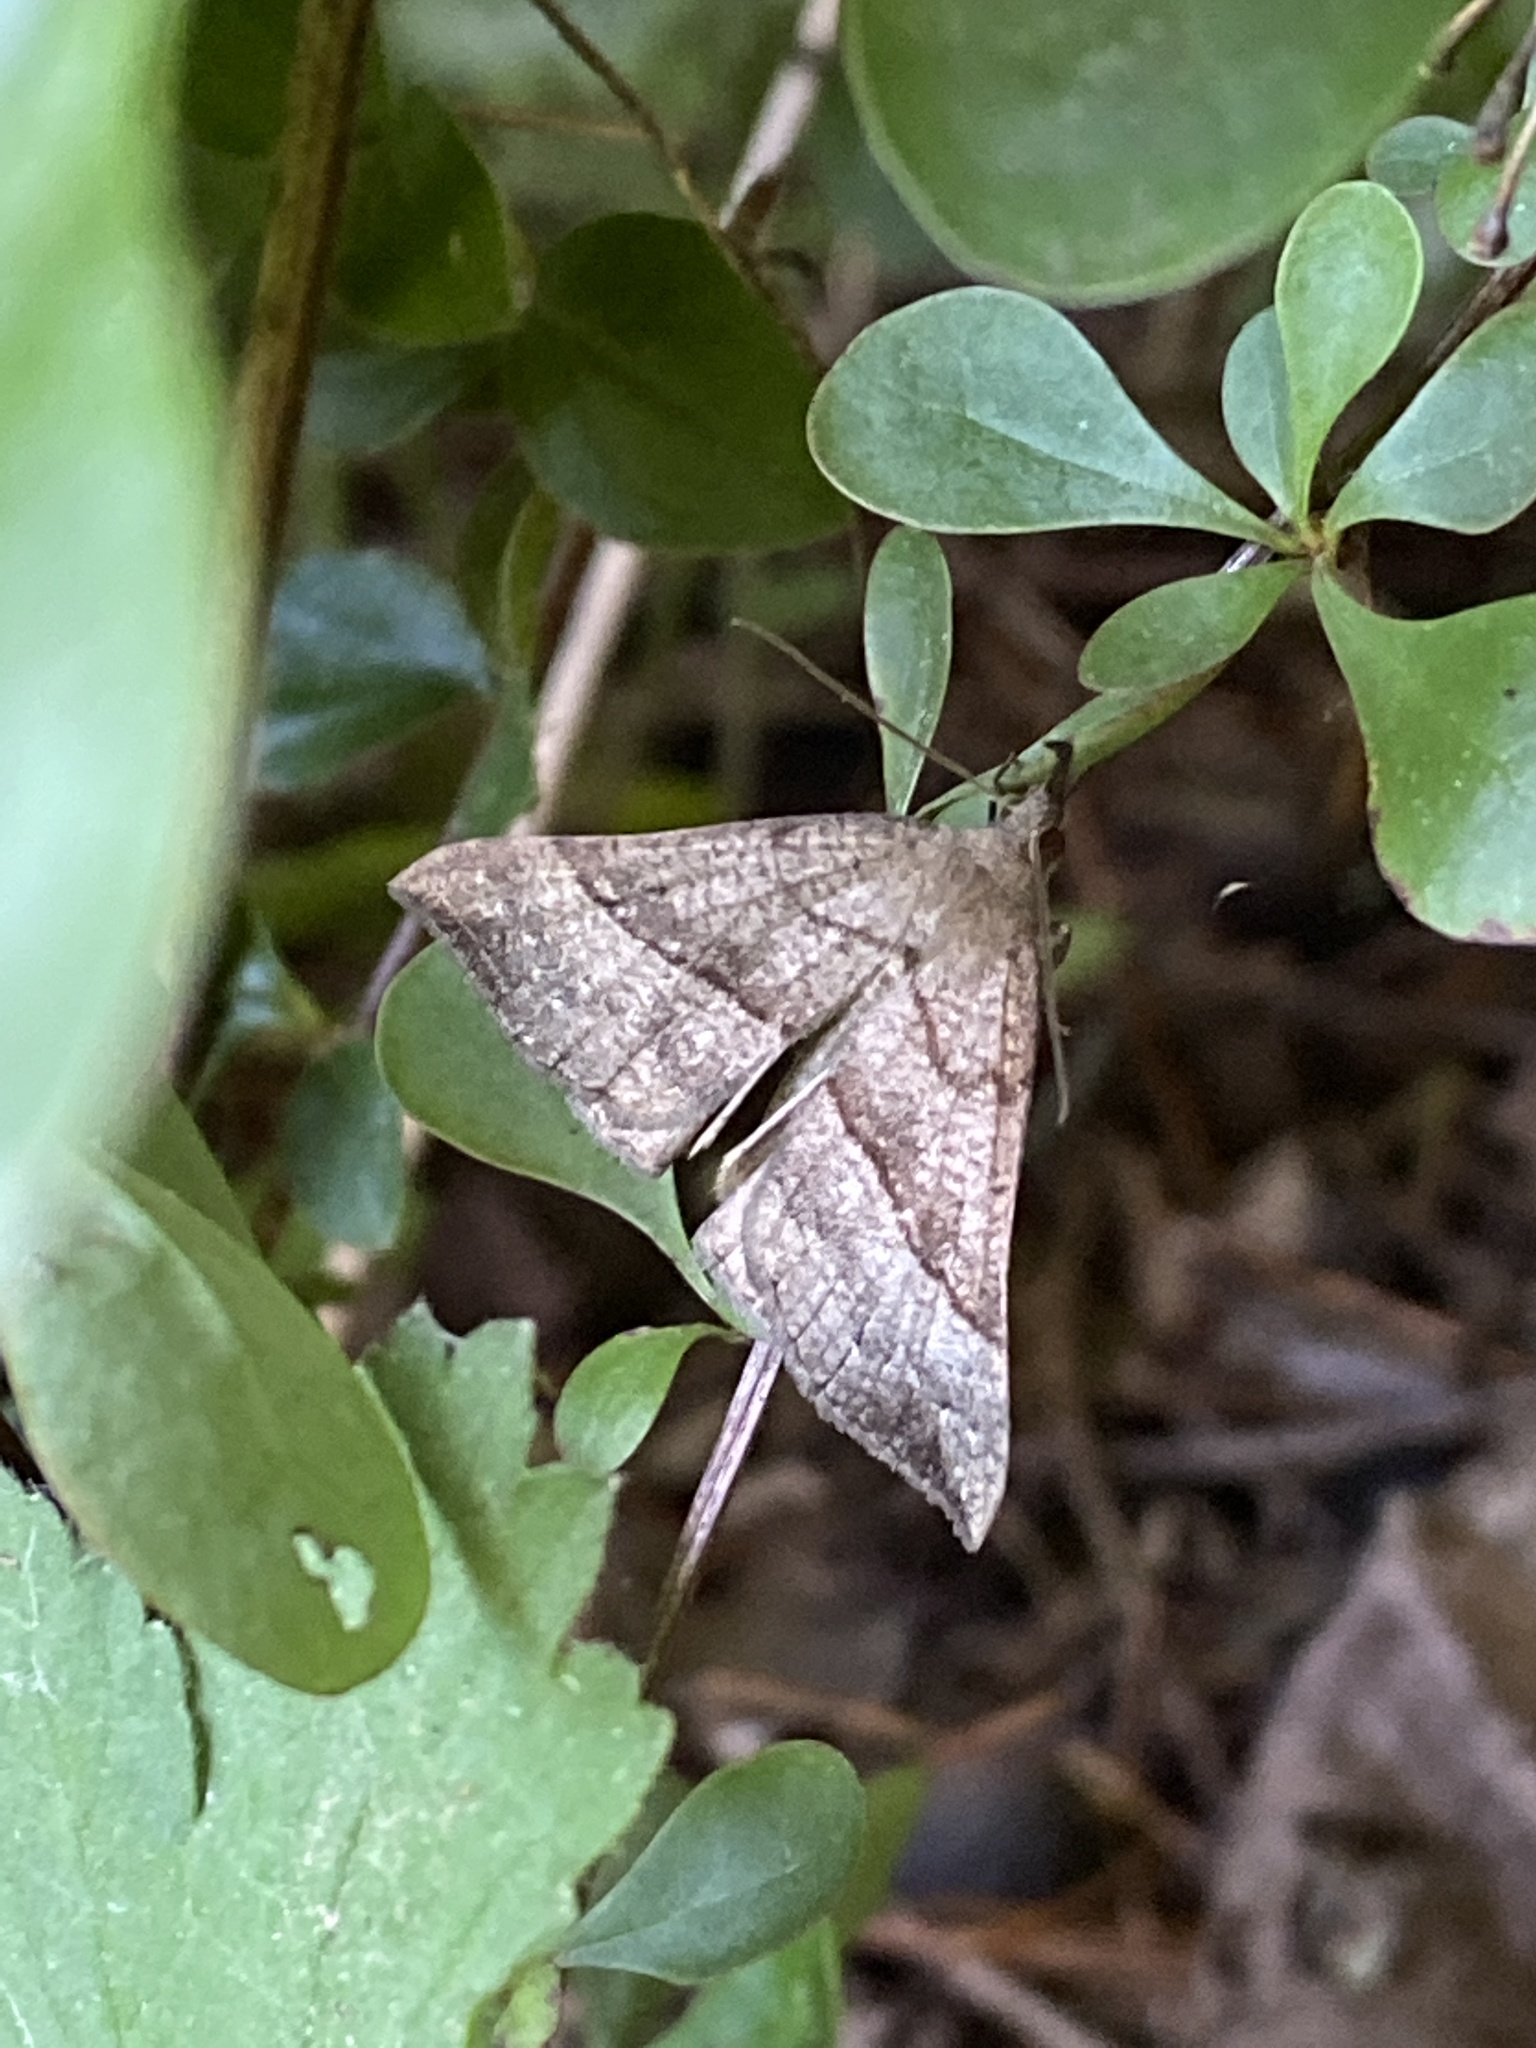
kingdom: Animalia
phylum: Arthropoda
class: Insecta
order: Lepidoptera
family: Erebidae
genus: Hypena
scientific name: Hypena proboscidalis
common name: Snout
